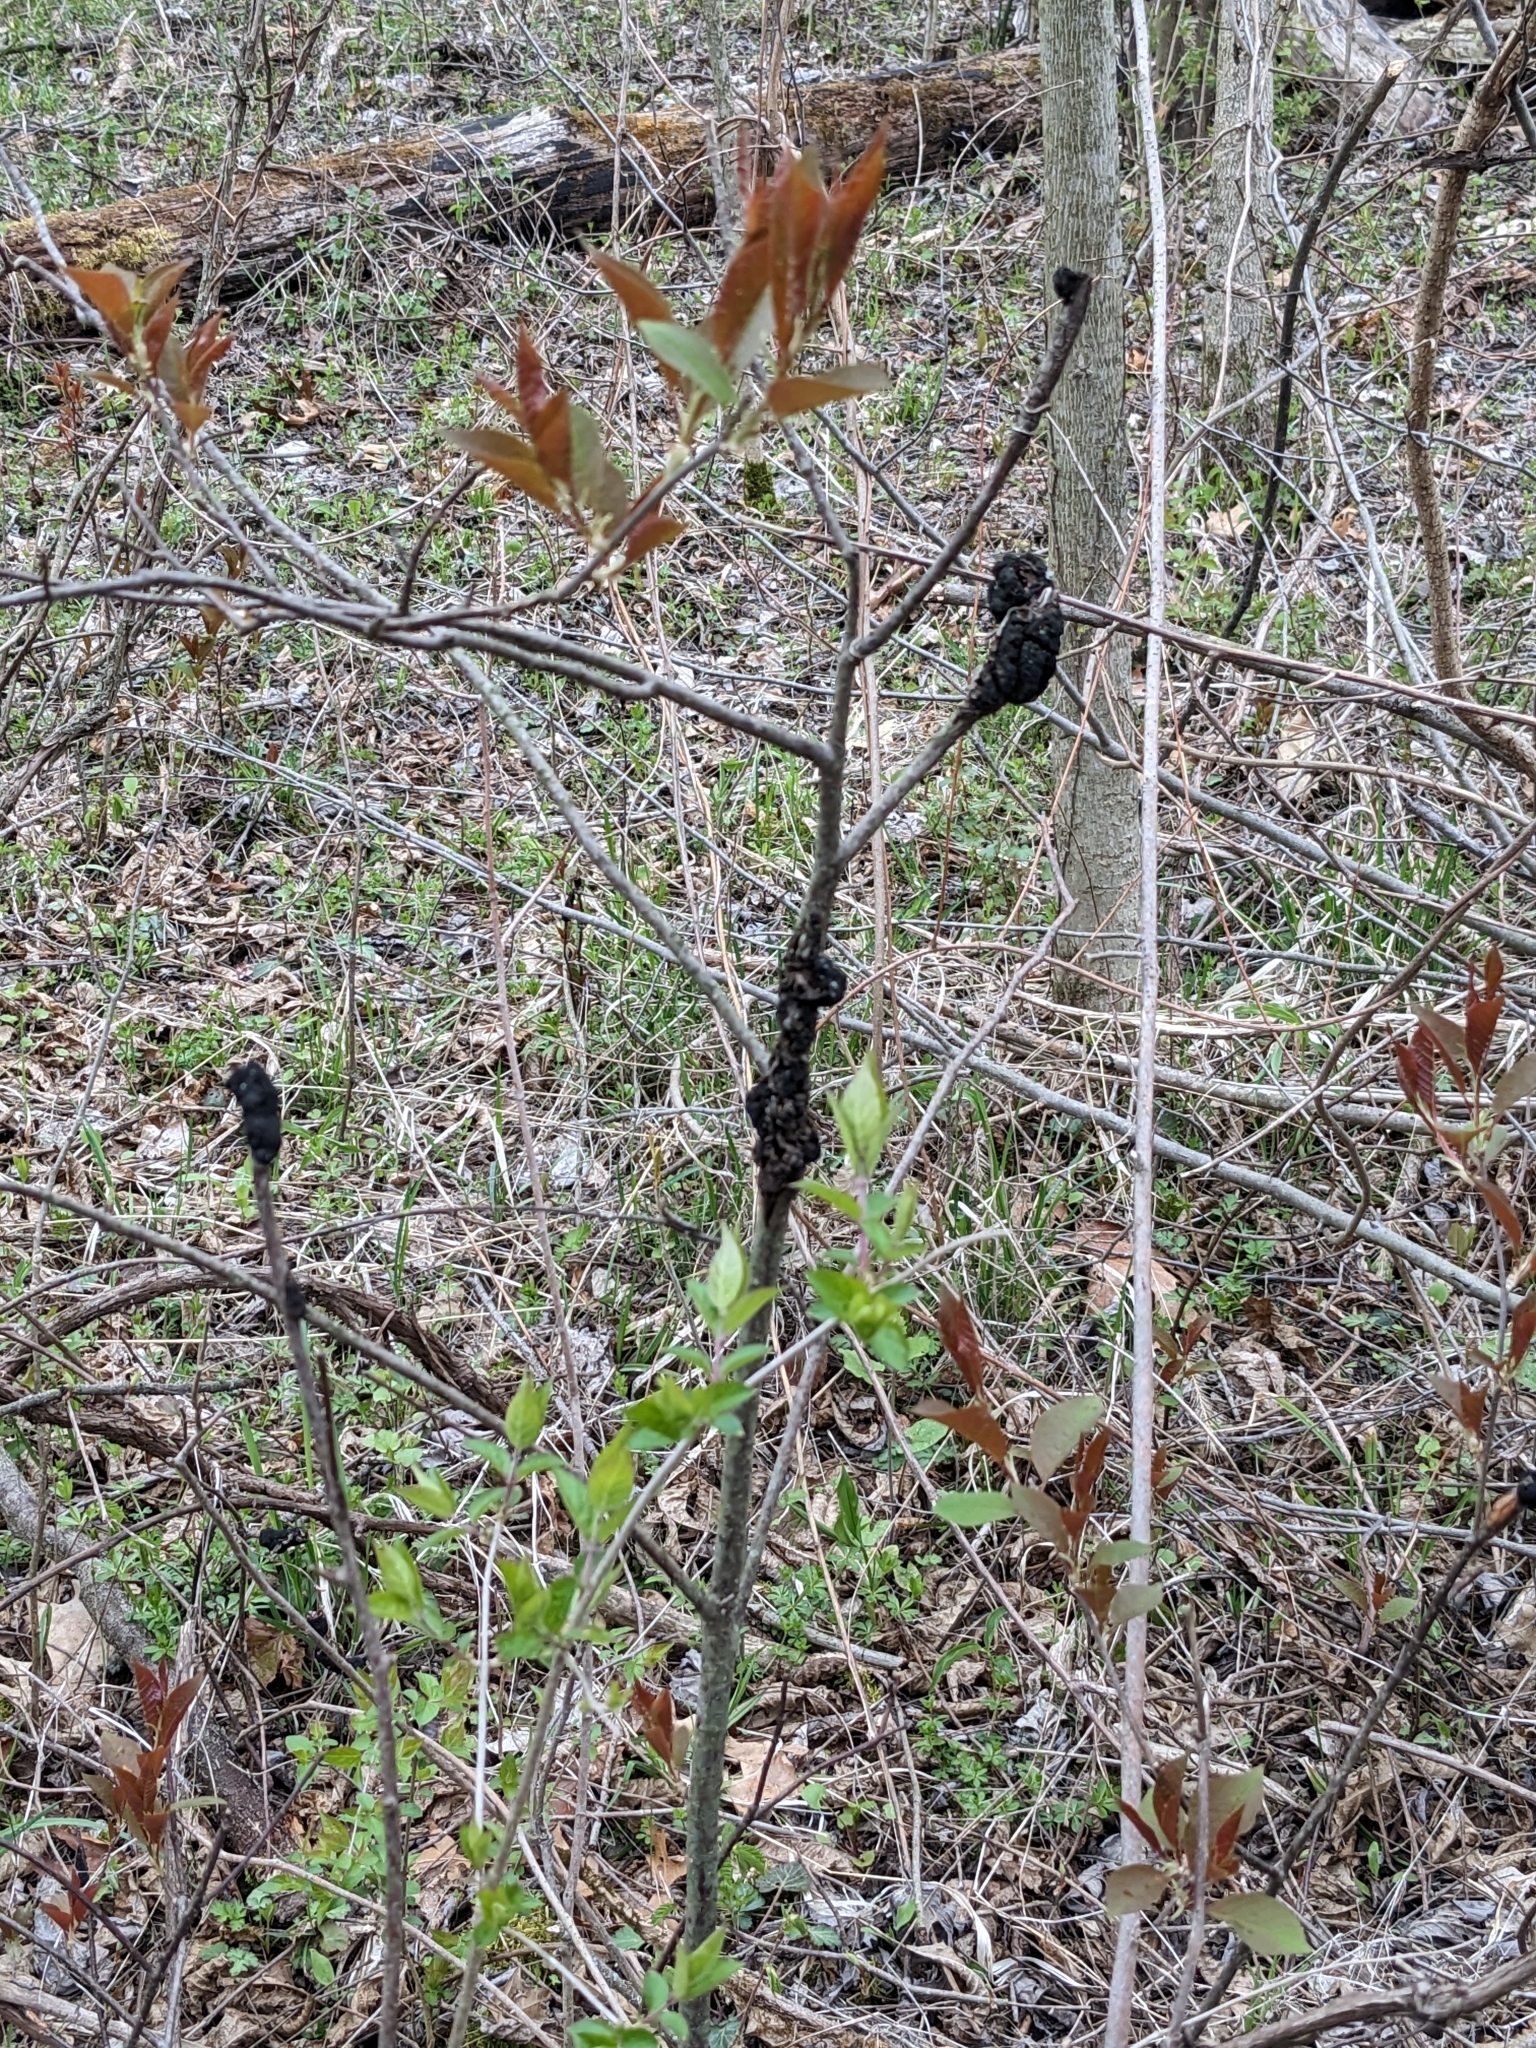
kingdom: Fungi
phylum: Ascomycota
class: Dothideomycetes
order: Venturiales
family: Venturiaceae
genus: Apiosporina
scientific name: Apiosporina morbosa
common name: Black knot
